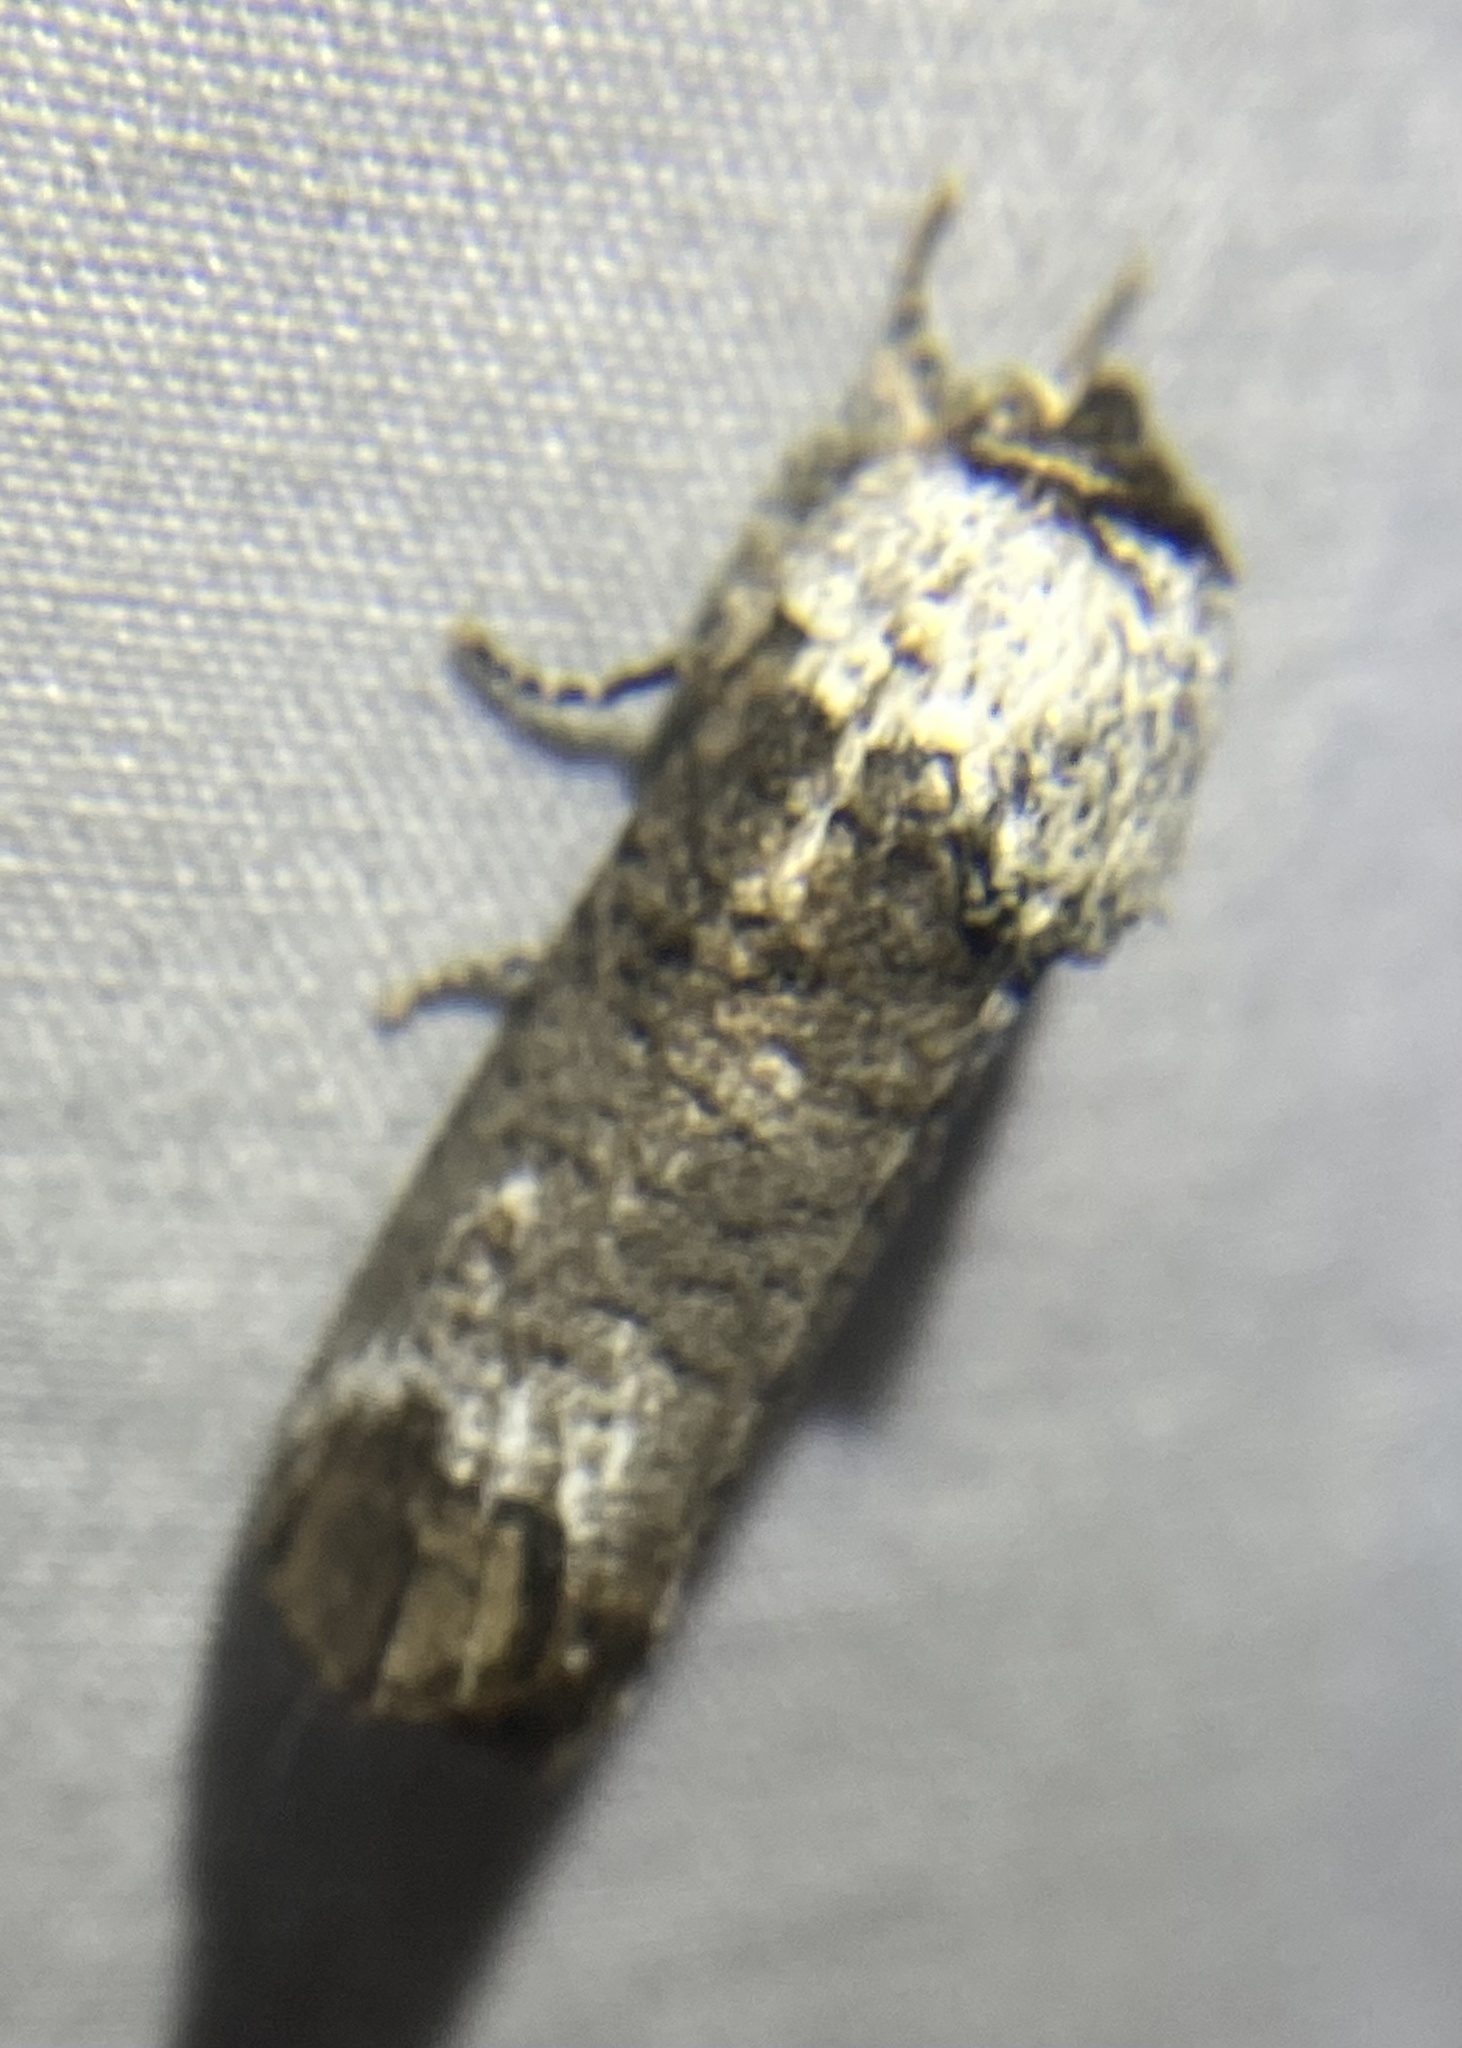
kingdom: Animalia
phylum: Arthropoda
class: Insecta
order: Lepidoptera
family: Cossidae
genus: Cossula
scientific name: Cossula magnifica
